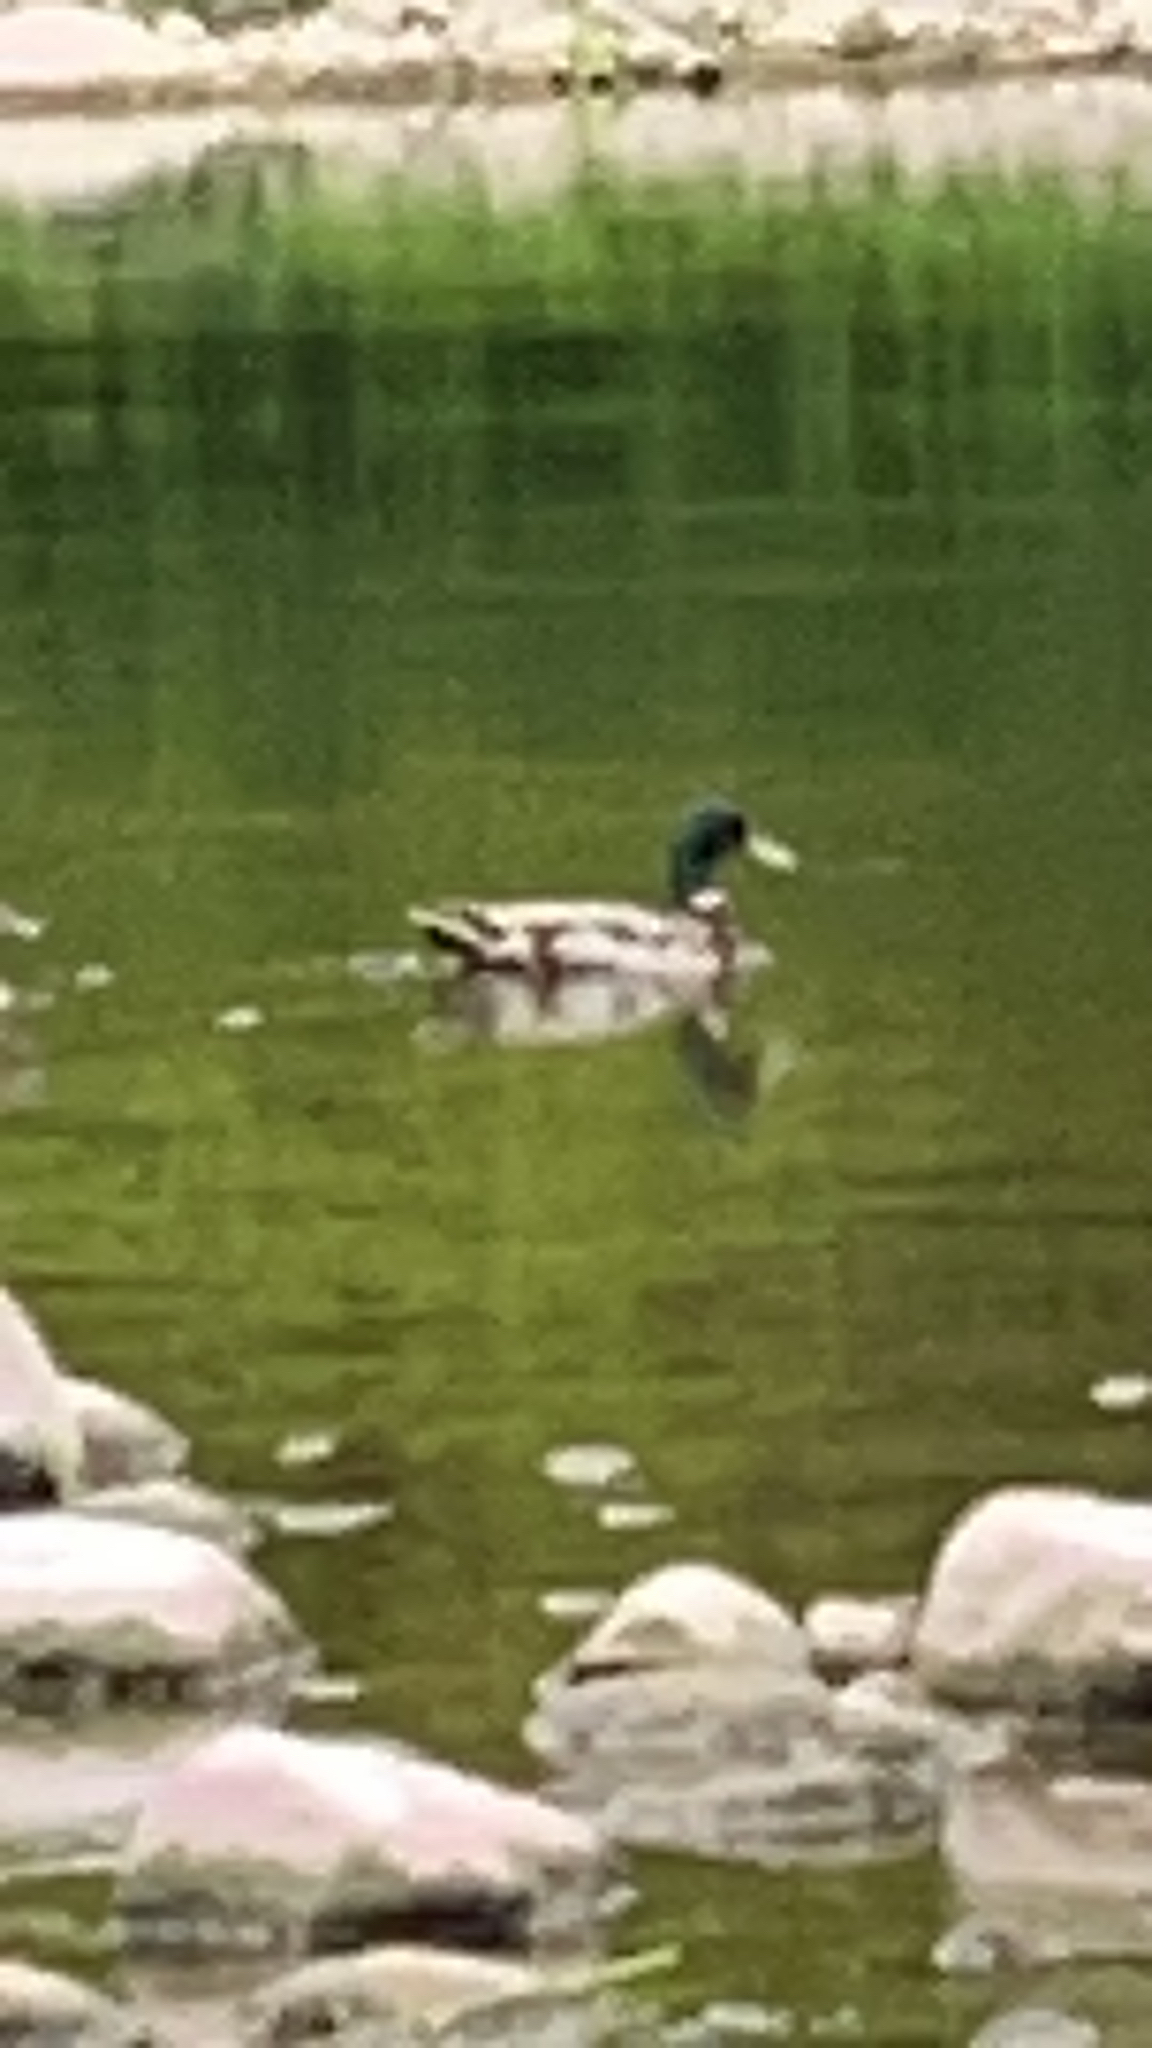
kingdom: Animalia
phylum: Chordata
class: Aves
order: Anseriformes
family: Anatidae
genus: Anas
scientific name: Anas platyrhynchos
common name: Mallard
